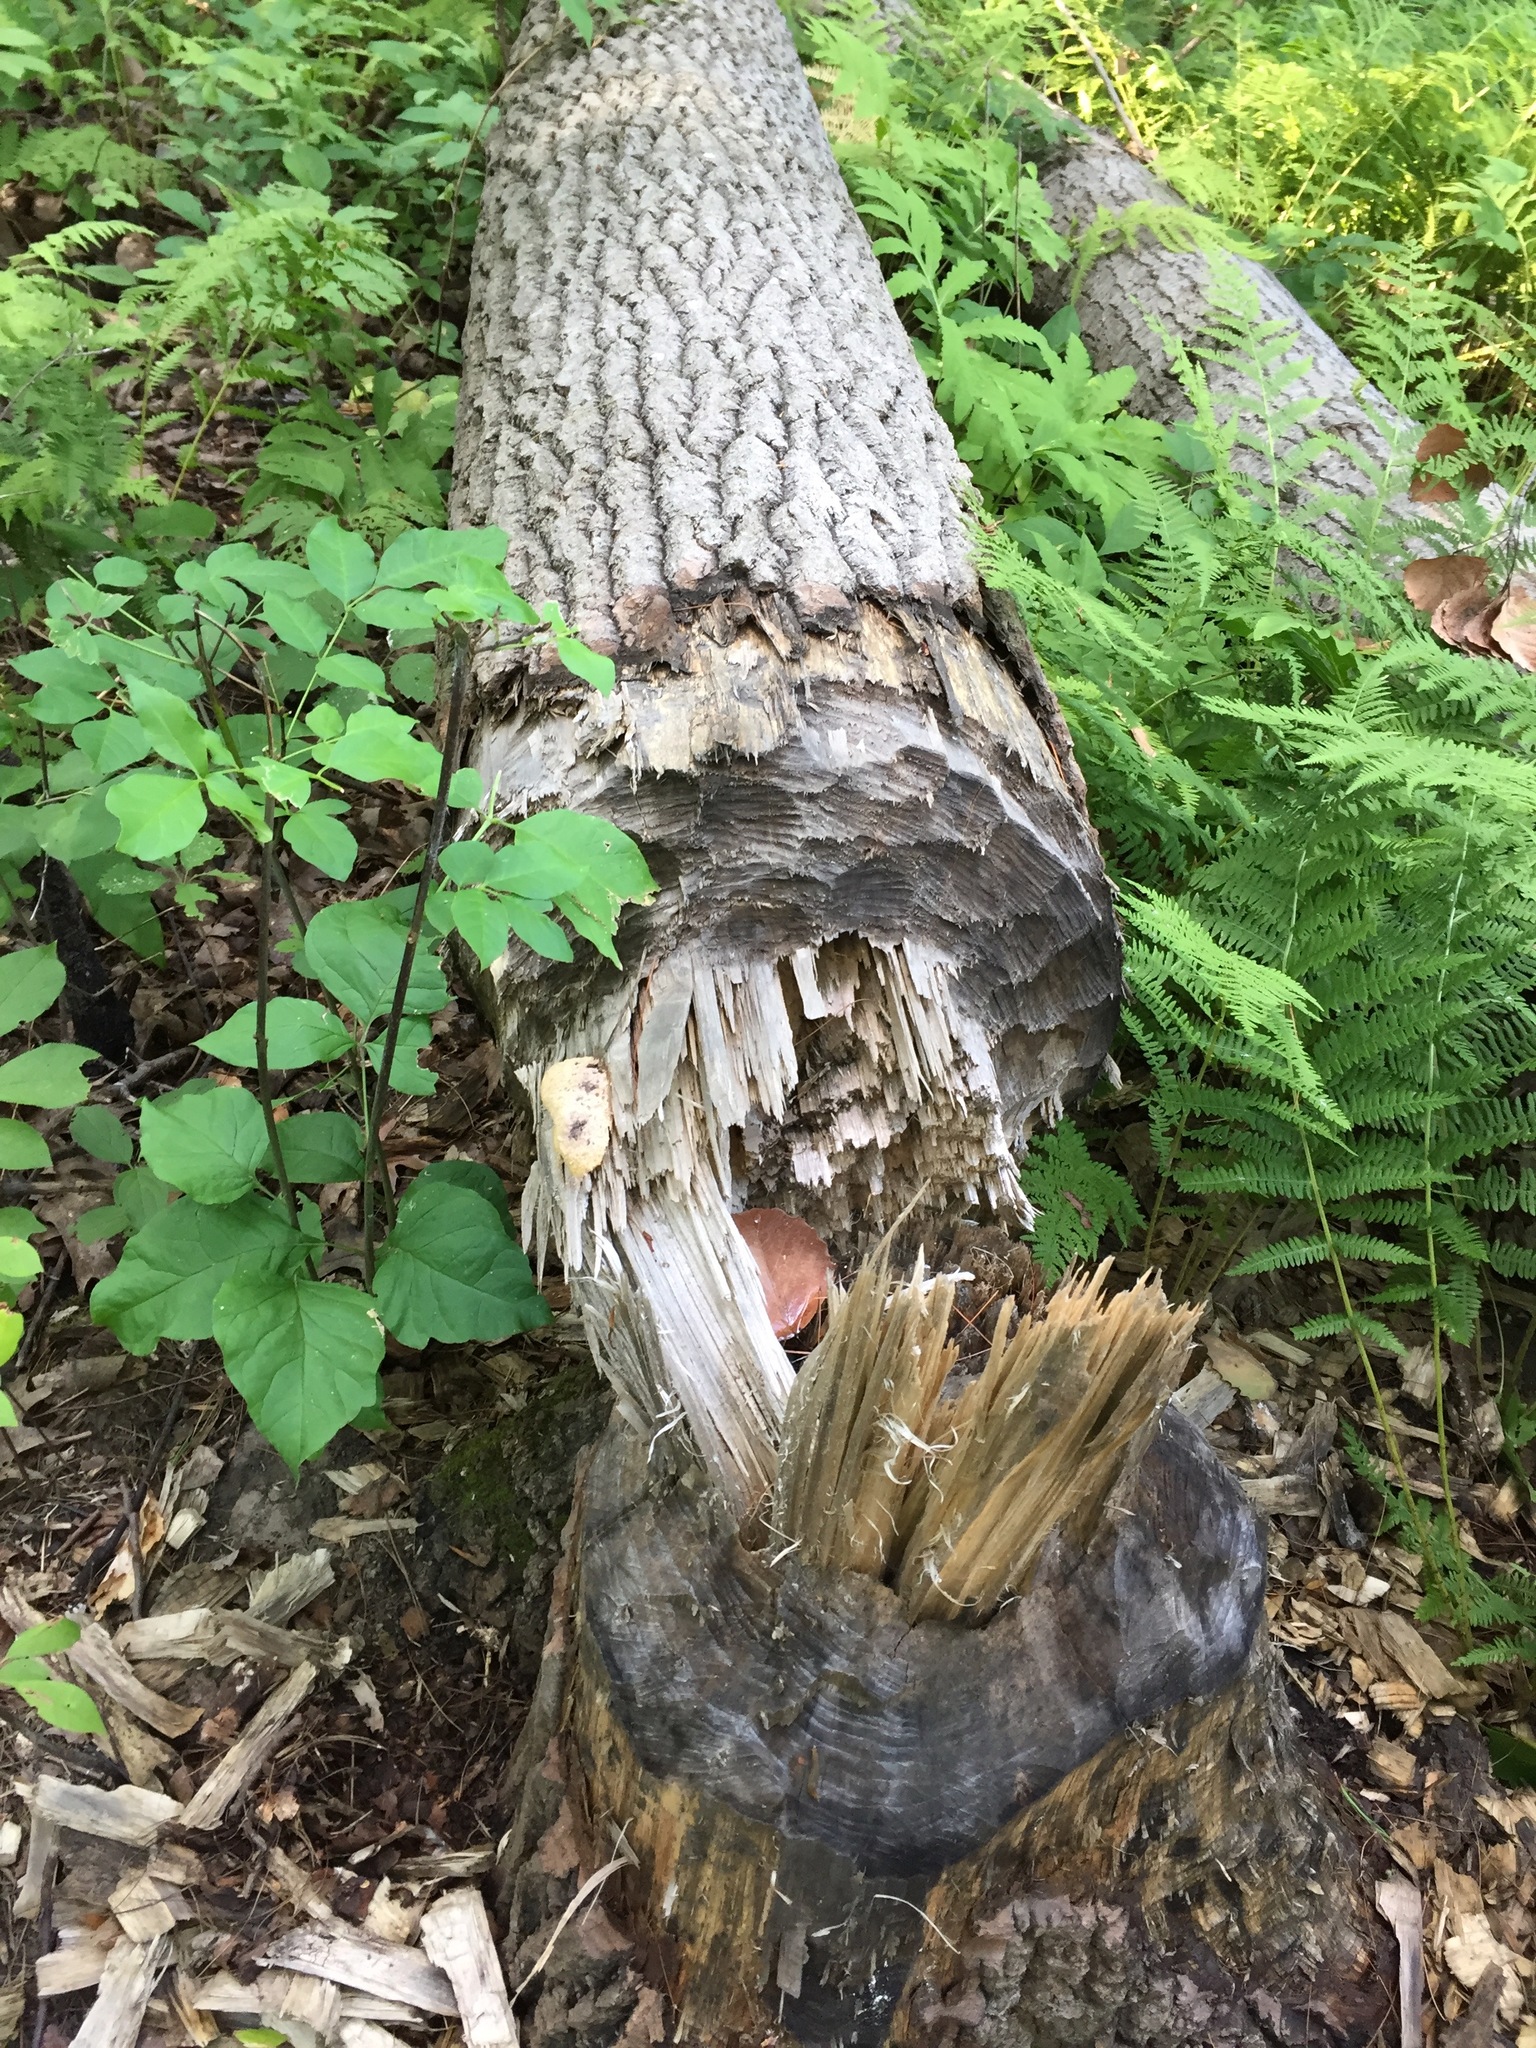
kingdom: Animalia
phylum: Chordata
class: Mammalia
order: Rodentia
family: Castoridae
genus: Castor
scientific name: Castor canadensis
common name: American beaver
